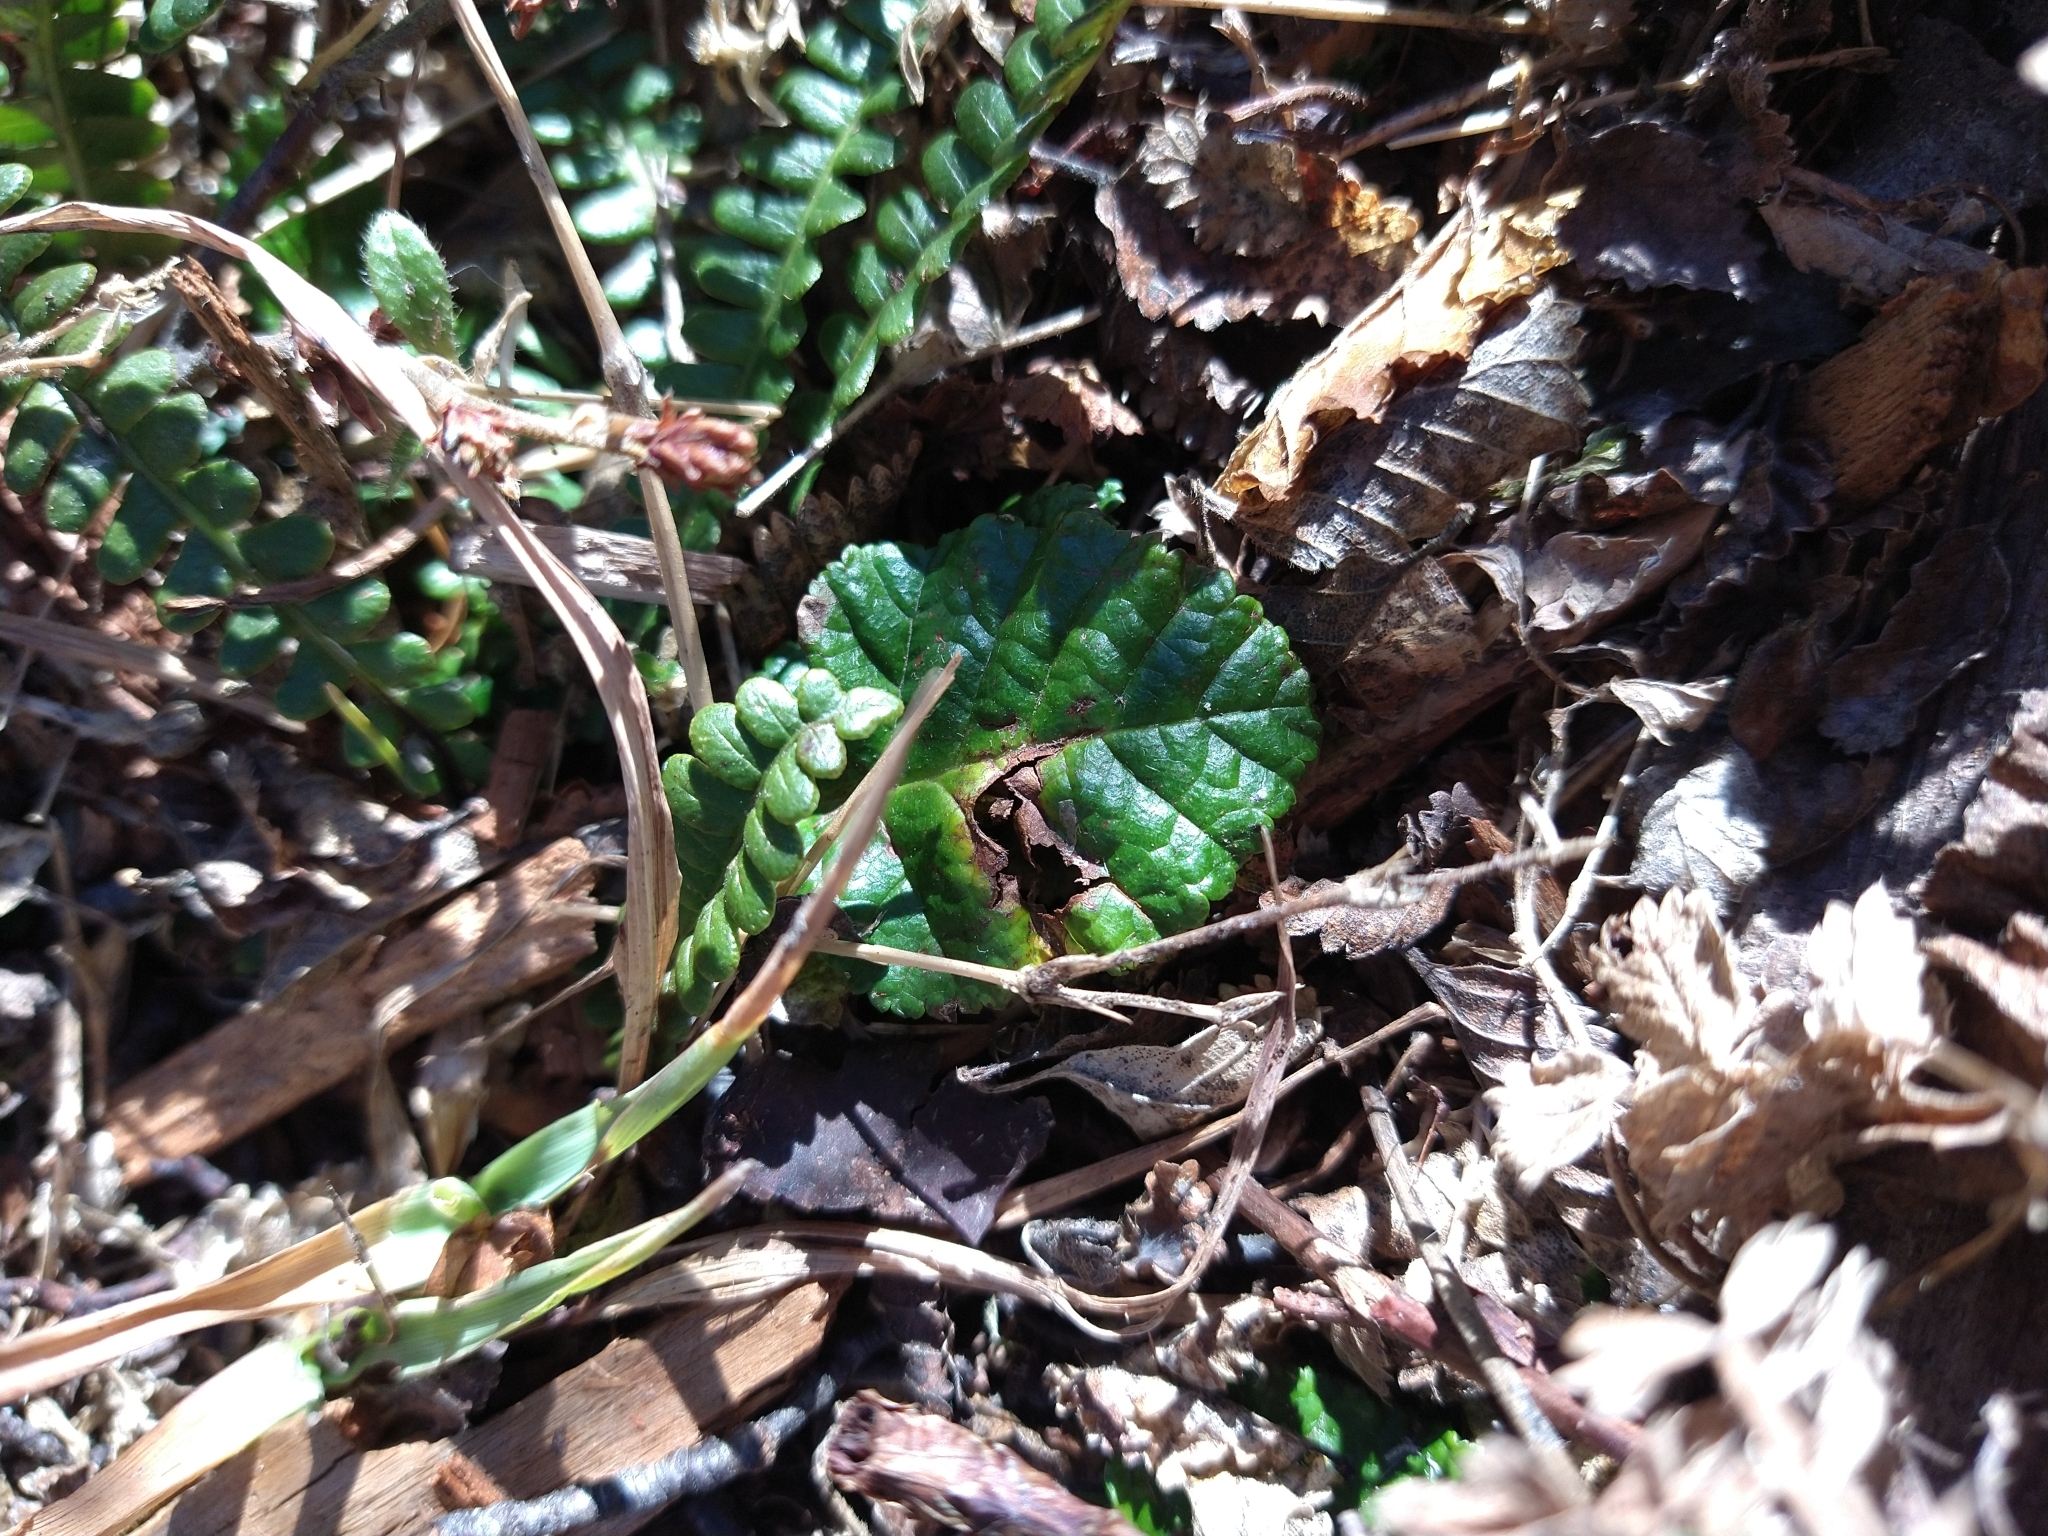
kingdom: Plantae
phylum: Tracheophyta
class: Magnoliopsida
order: Rosales
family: Rosaceae
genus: Rubus
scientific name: Rubus geoides
